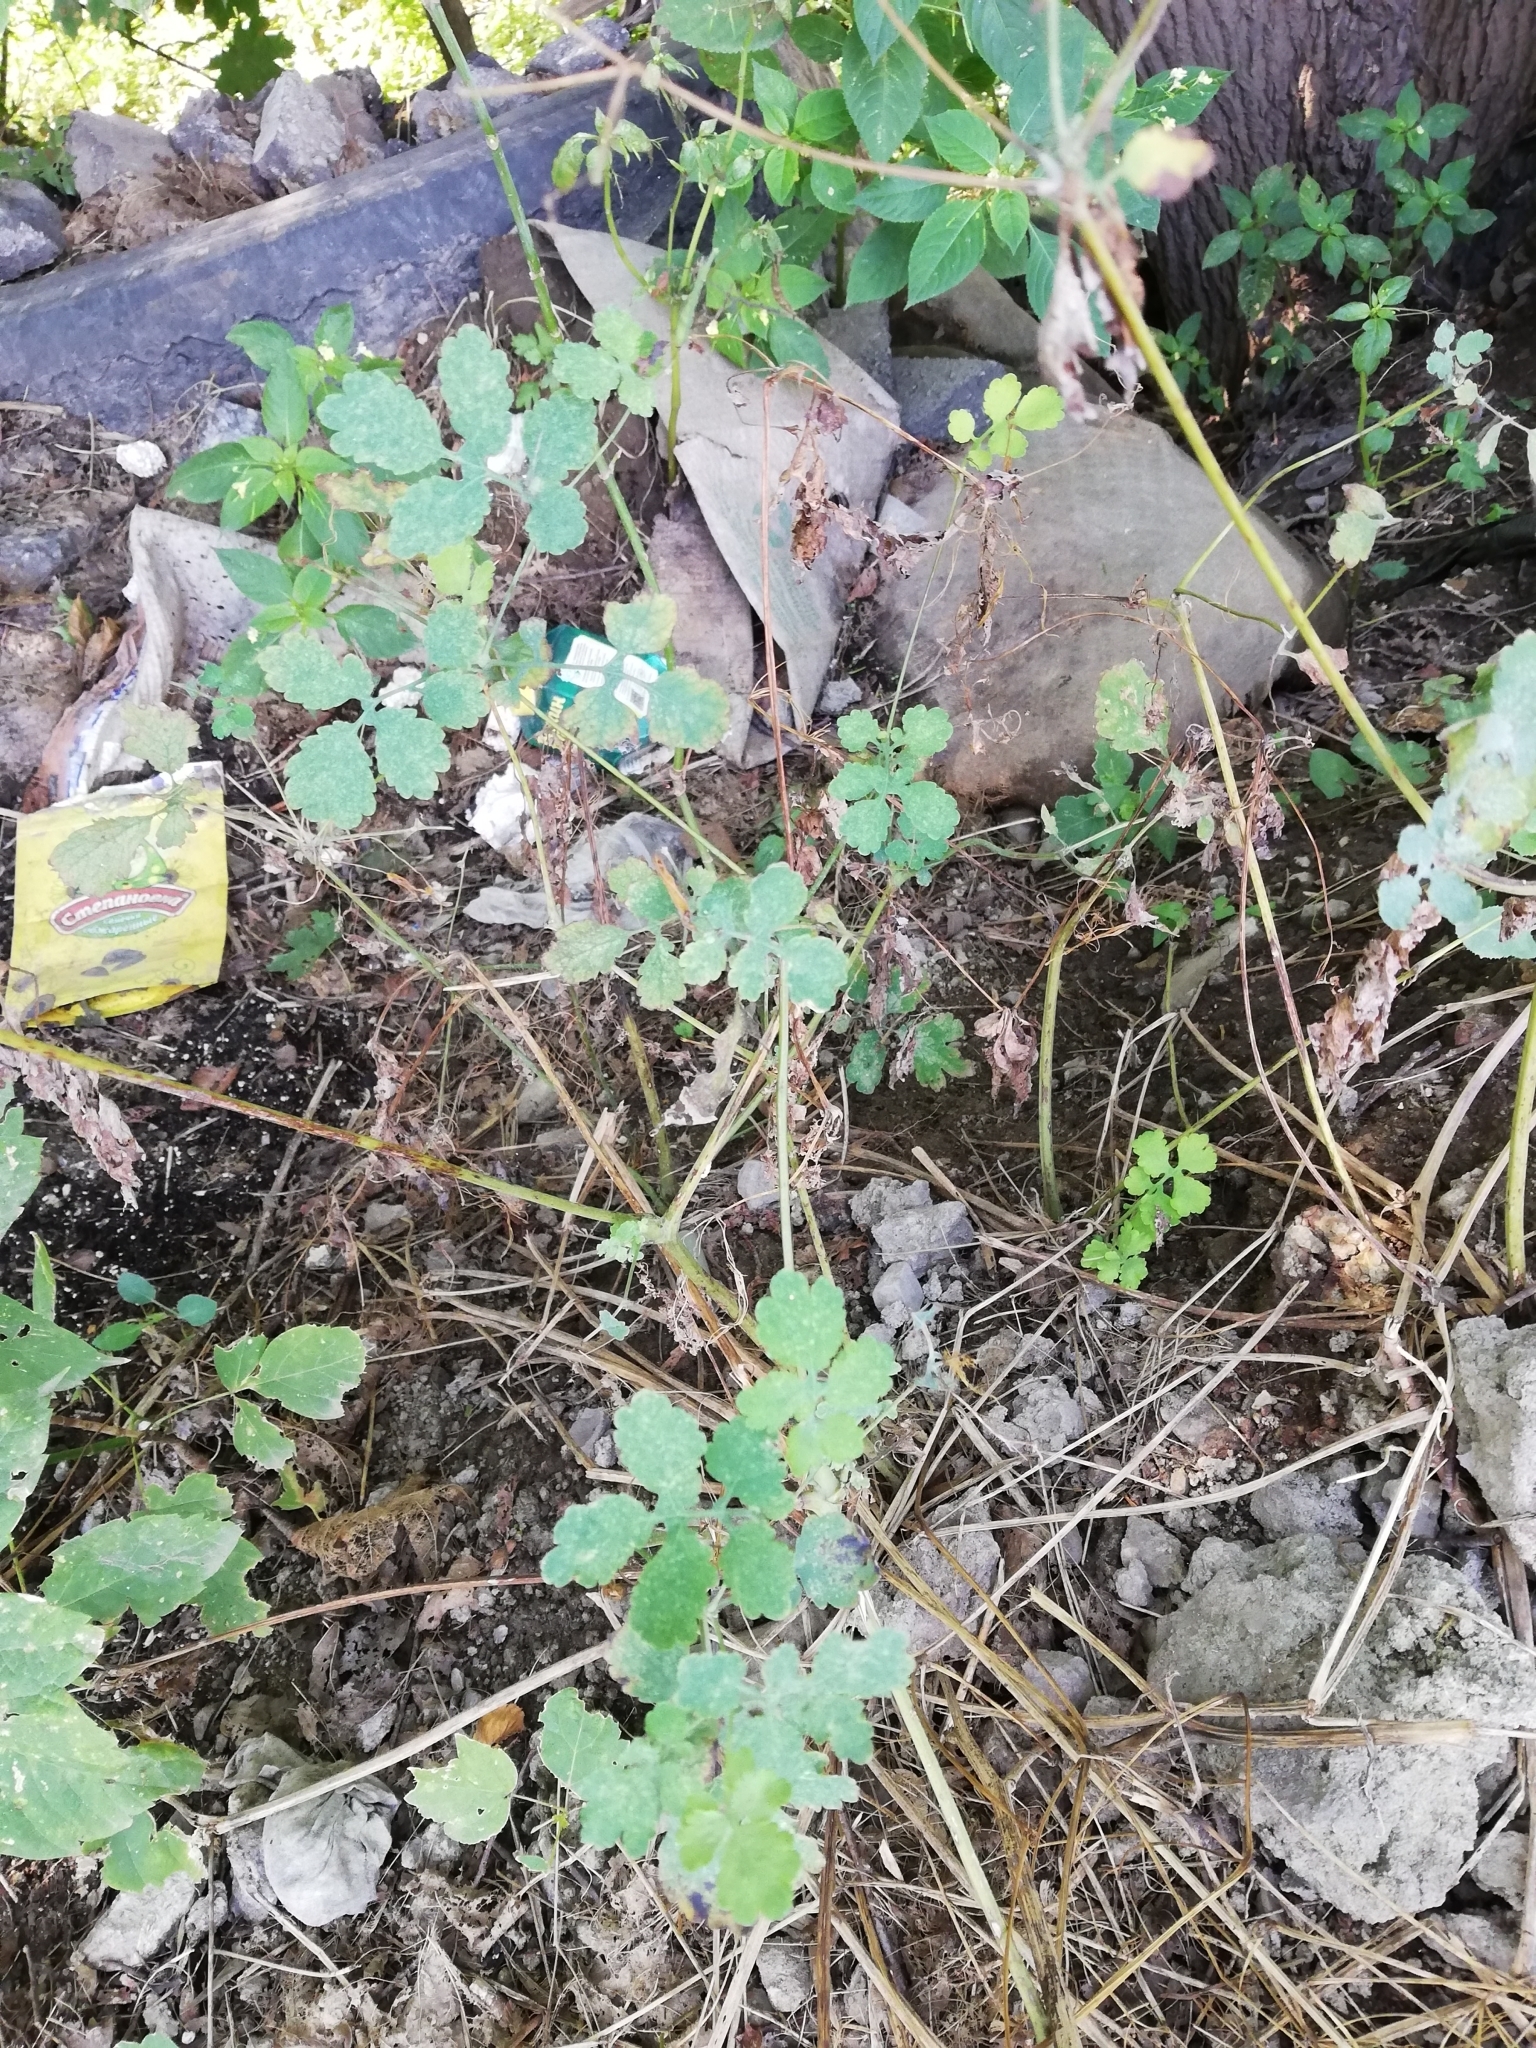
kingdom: Plantae
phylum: Tracheophyta
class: Magnoliopsida
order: Ranunculales
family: Papaveraceae
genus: Chelidonium
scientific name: Chelidonium majus
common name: Greater celandine
